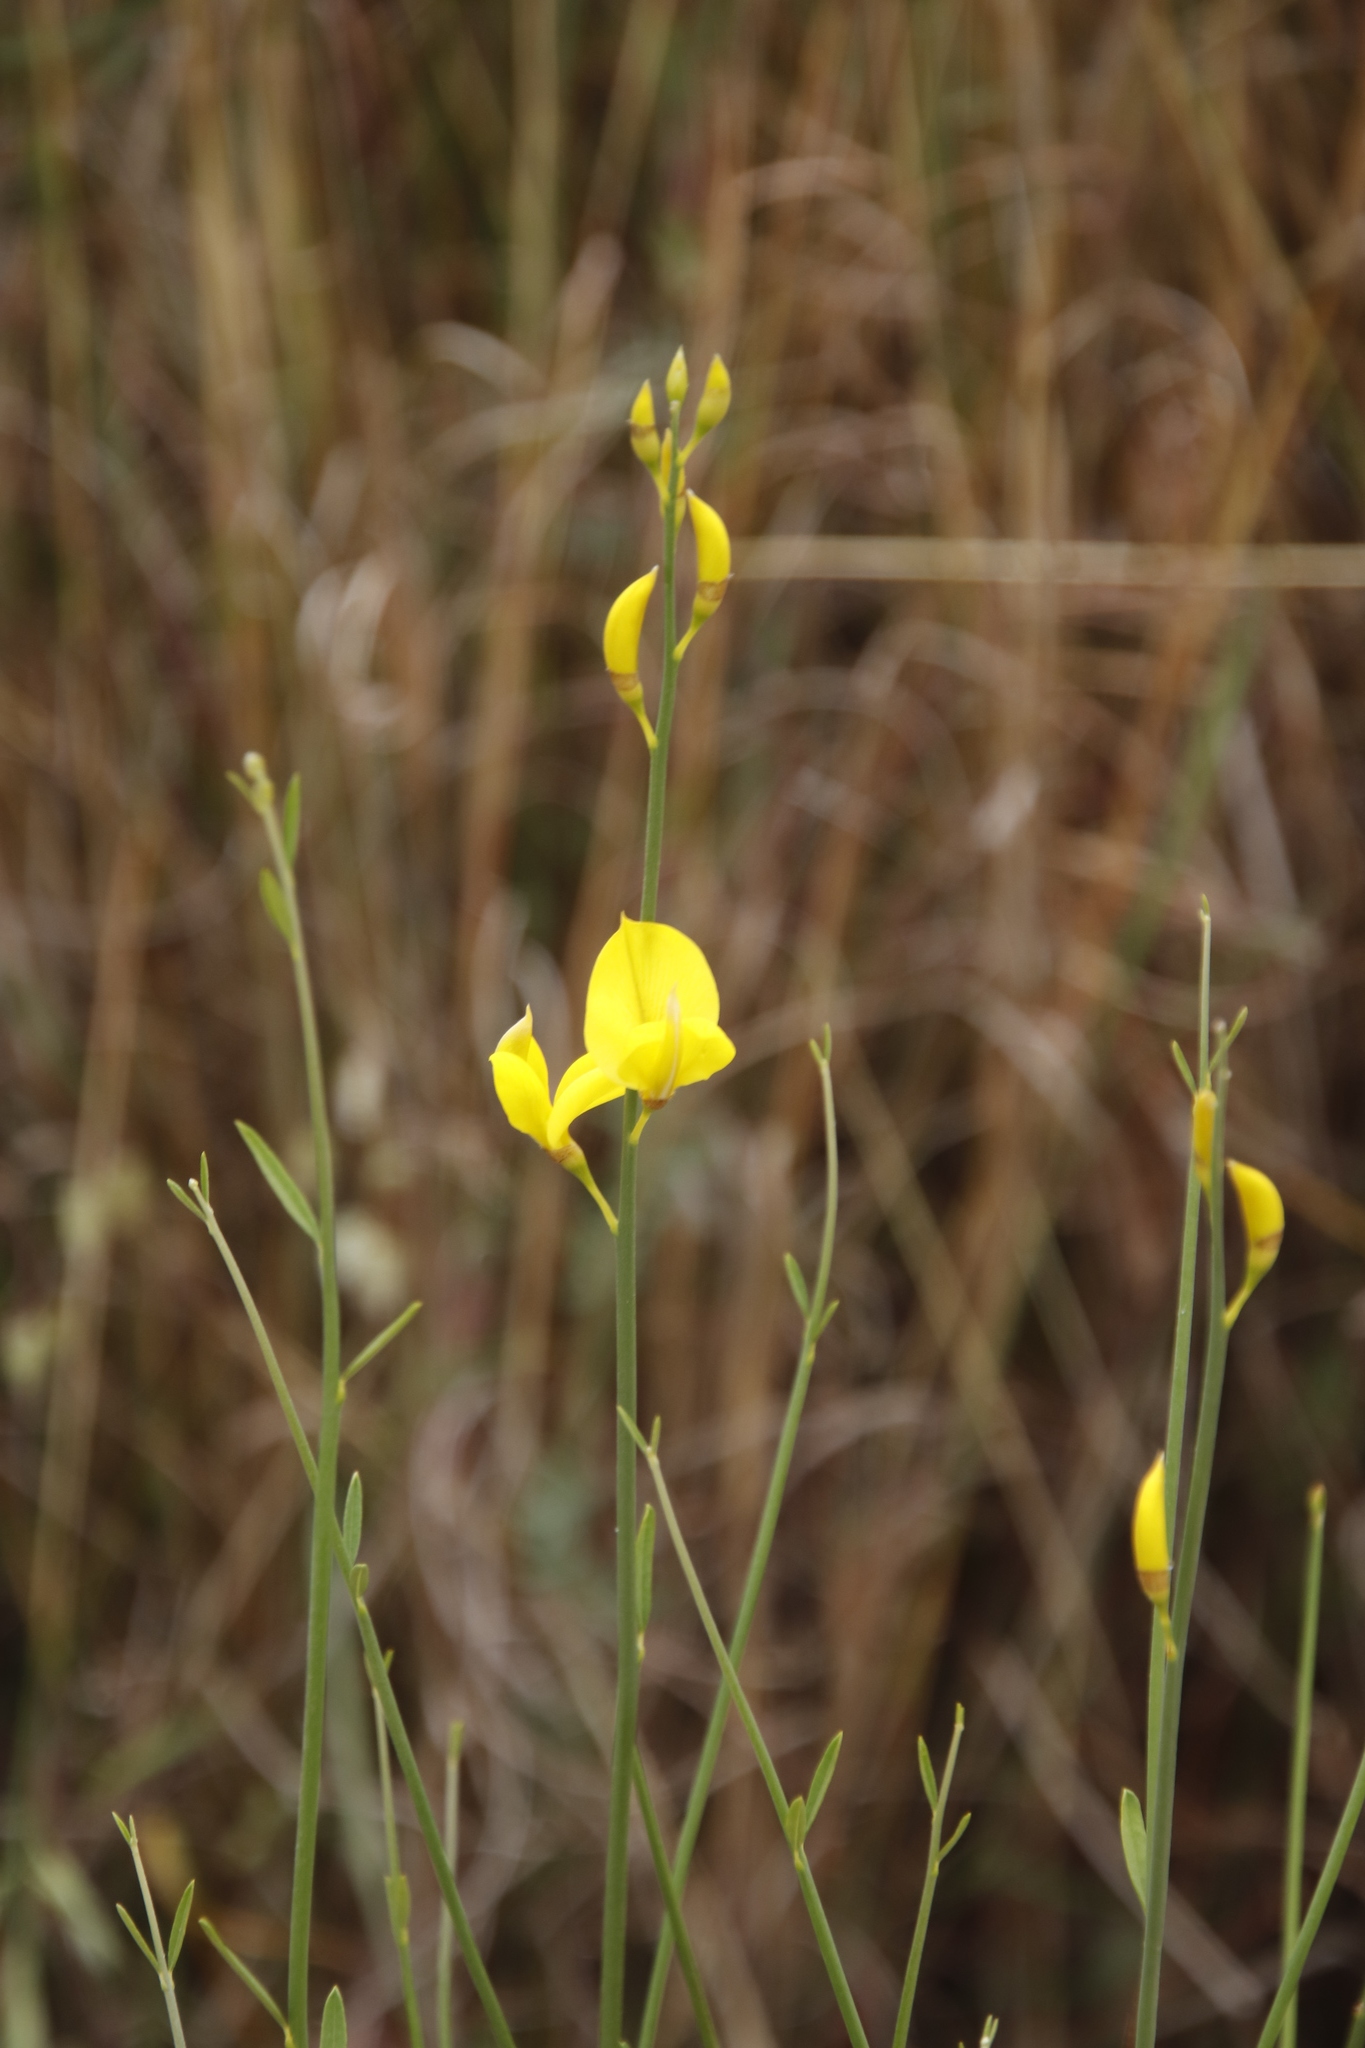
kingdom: Plantae
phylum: Tracheophyta
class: Magnoliopsida
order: Fabales
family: Fabaceae
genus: Spartium
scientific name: Spartium junceum
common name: Spanish broom
